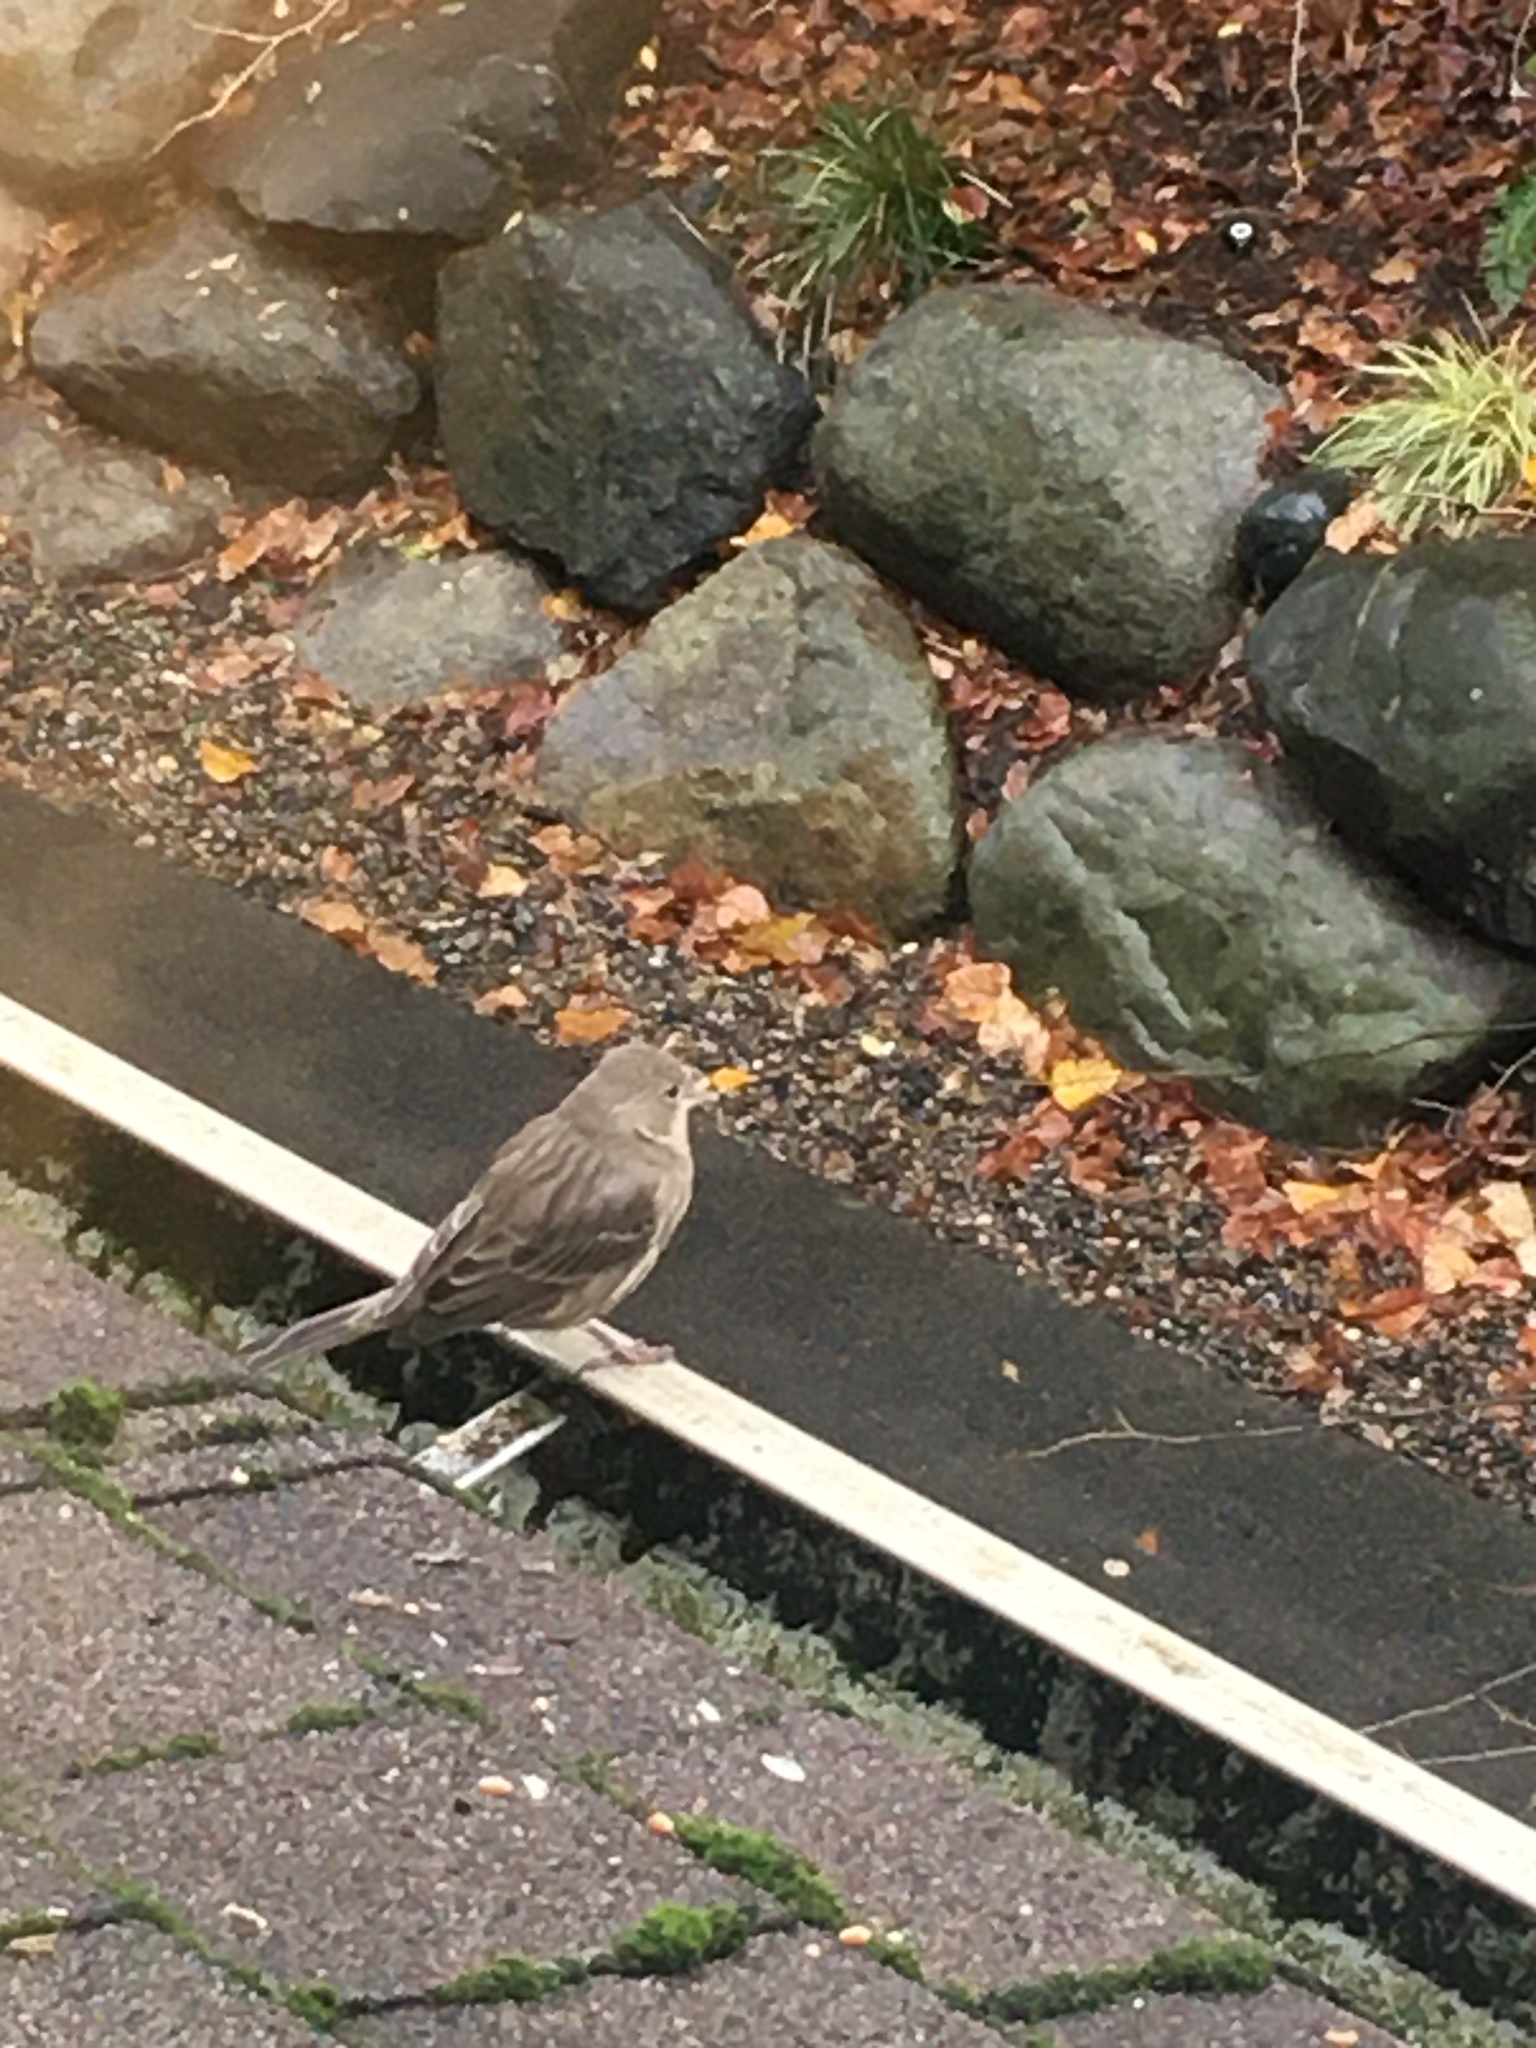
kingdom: Animalia
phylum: Chordata
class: Aves
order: Passeriformes
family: Fringillidae
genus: Haemorhous
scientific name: Haemorhous mexicanus
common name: House finch
